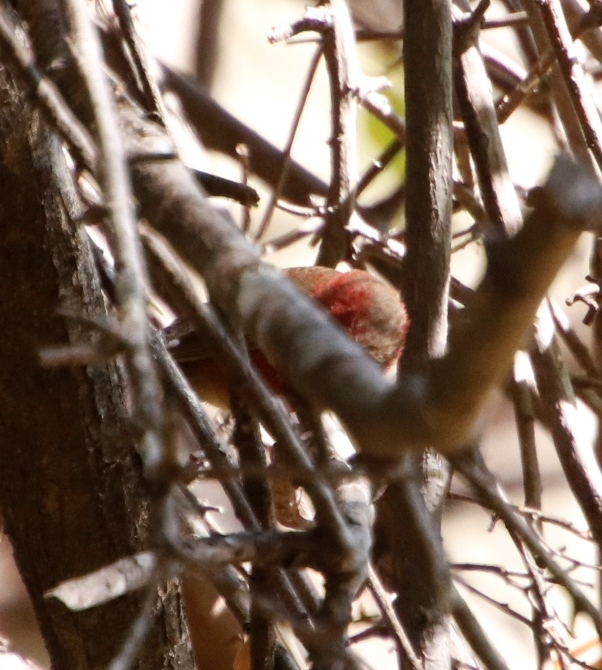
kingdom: Animalia
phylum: Chordata
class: Aves
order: Passeriformes
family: Estrildidae
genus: Lagonosticta
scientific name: Lagonosticta senegala
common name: Red-billed firefinch
